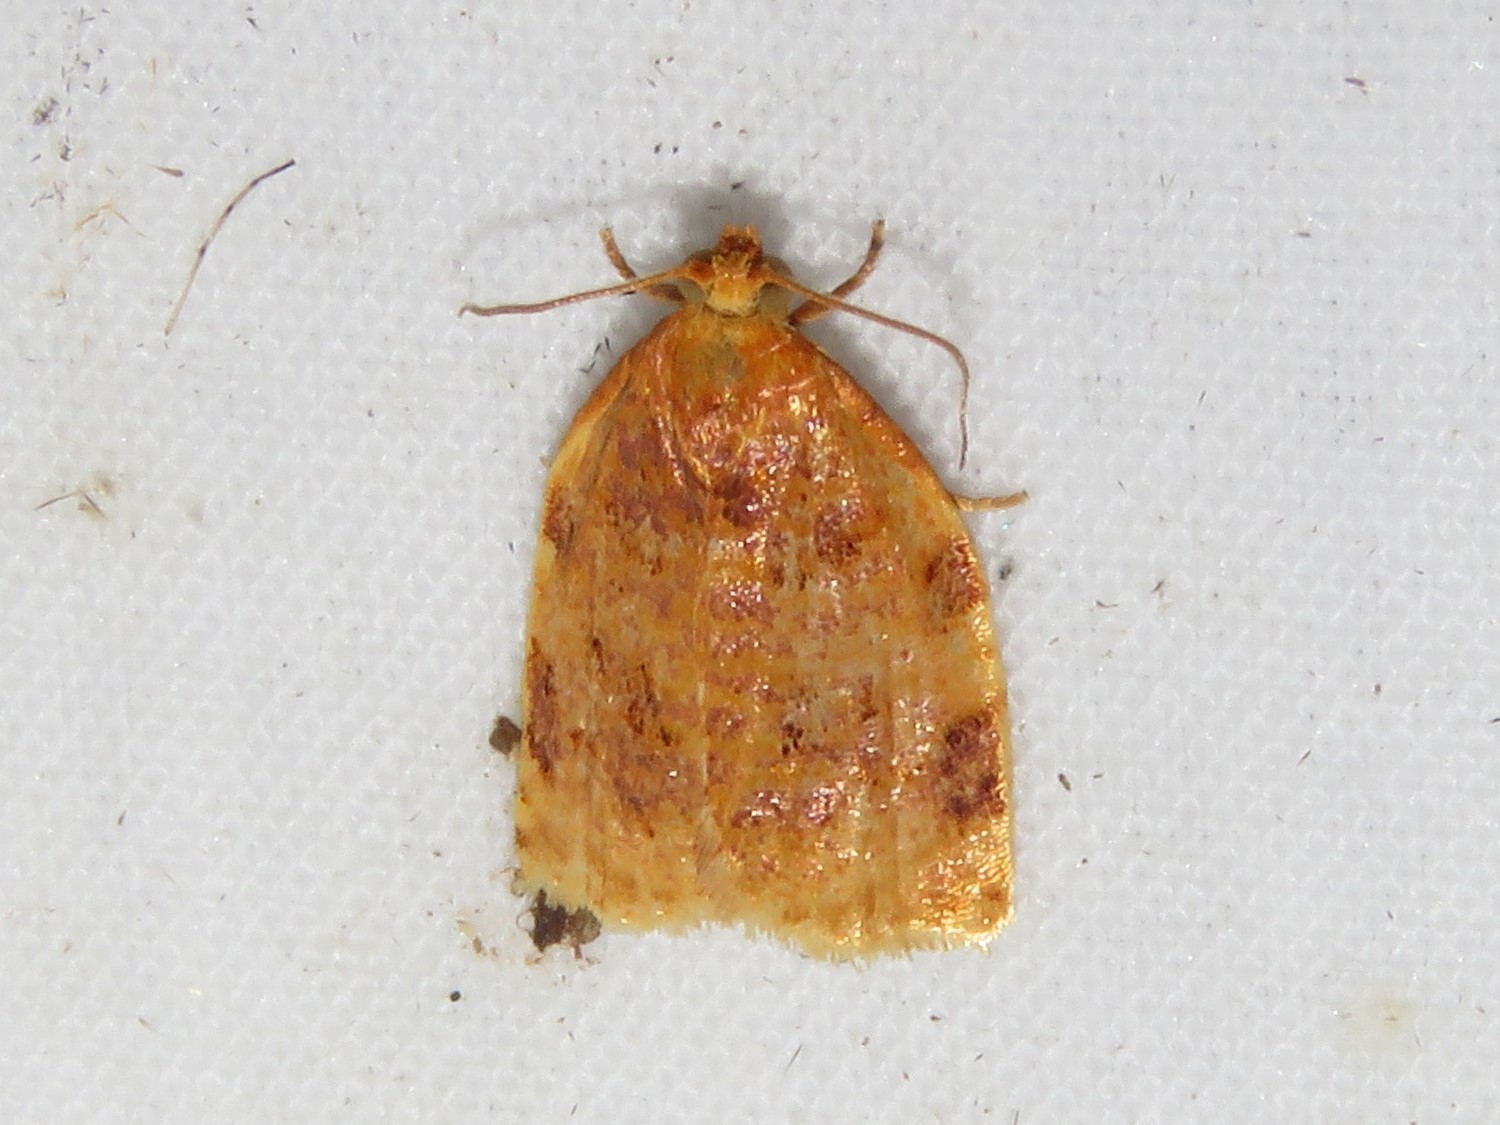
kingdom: Animalia
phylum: Arthropoda
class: Insecta
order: Lepidoptera
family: Tortricidae
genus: Archips
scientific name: Archips cerasivorana
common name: Uglynest caterpillar
